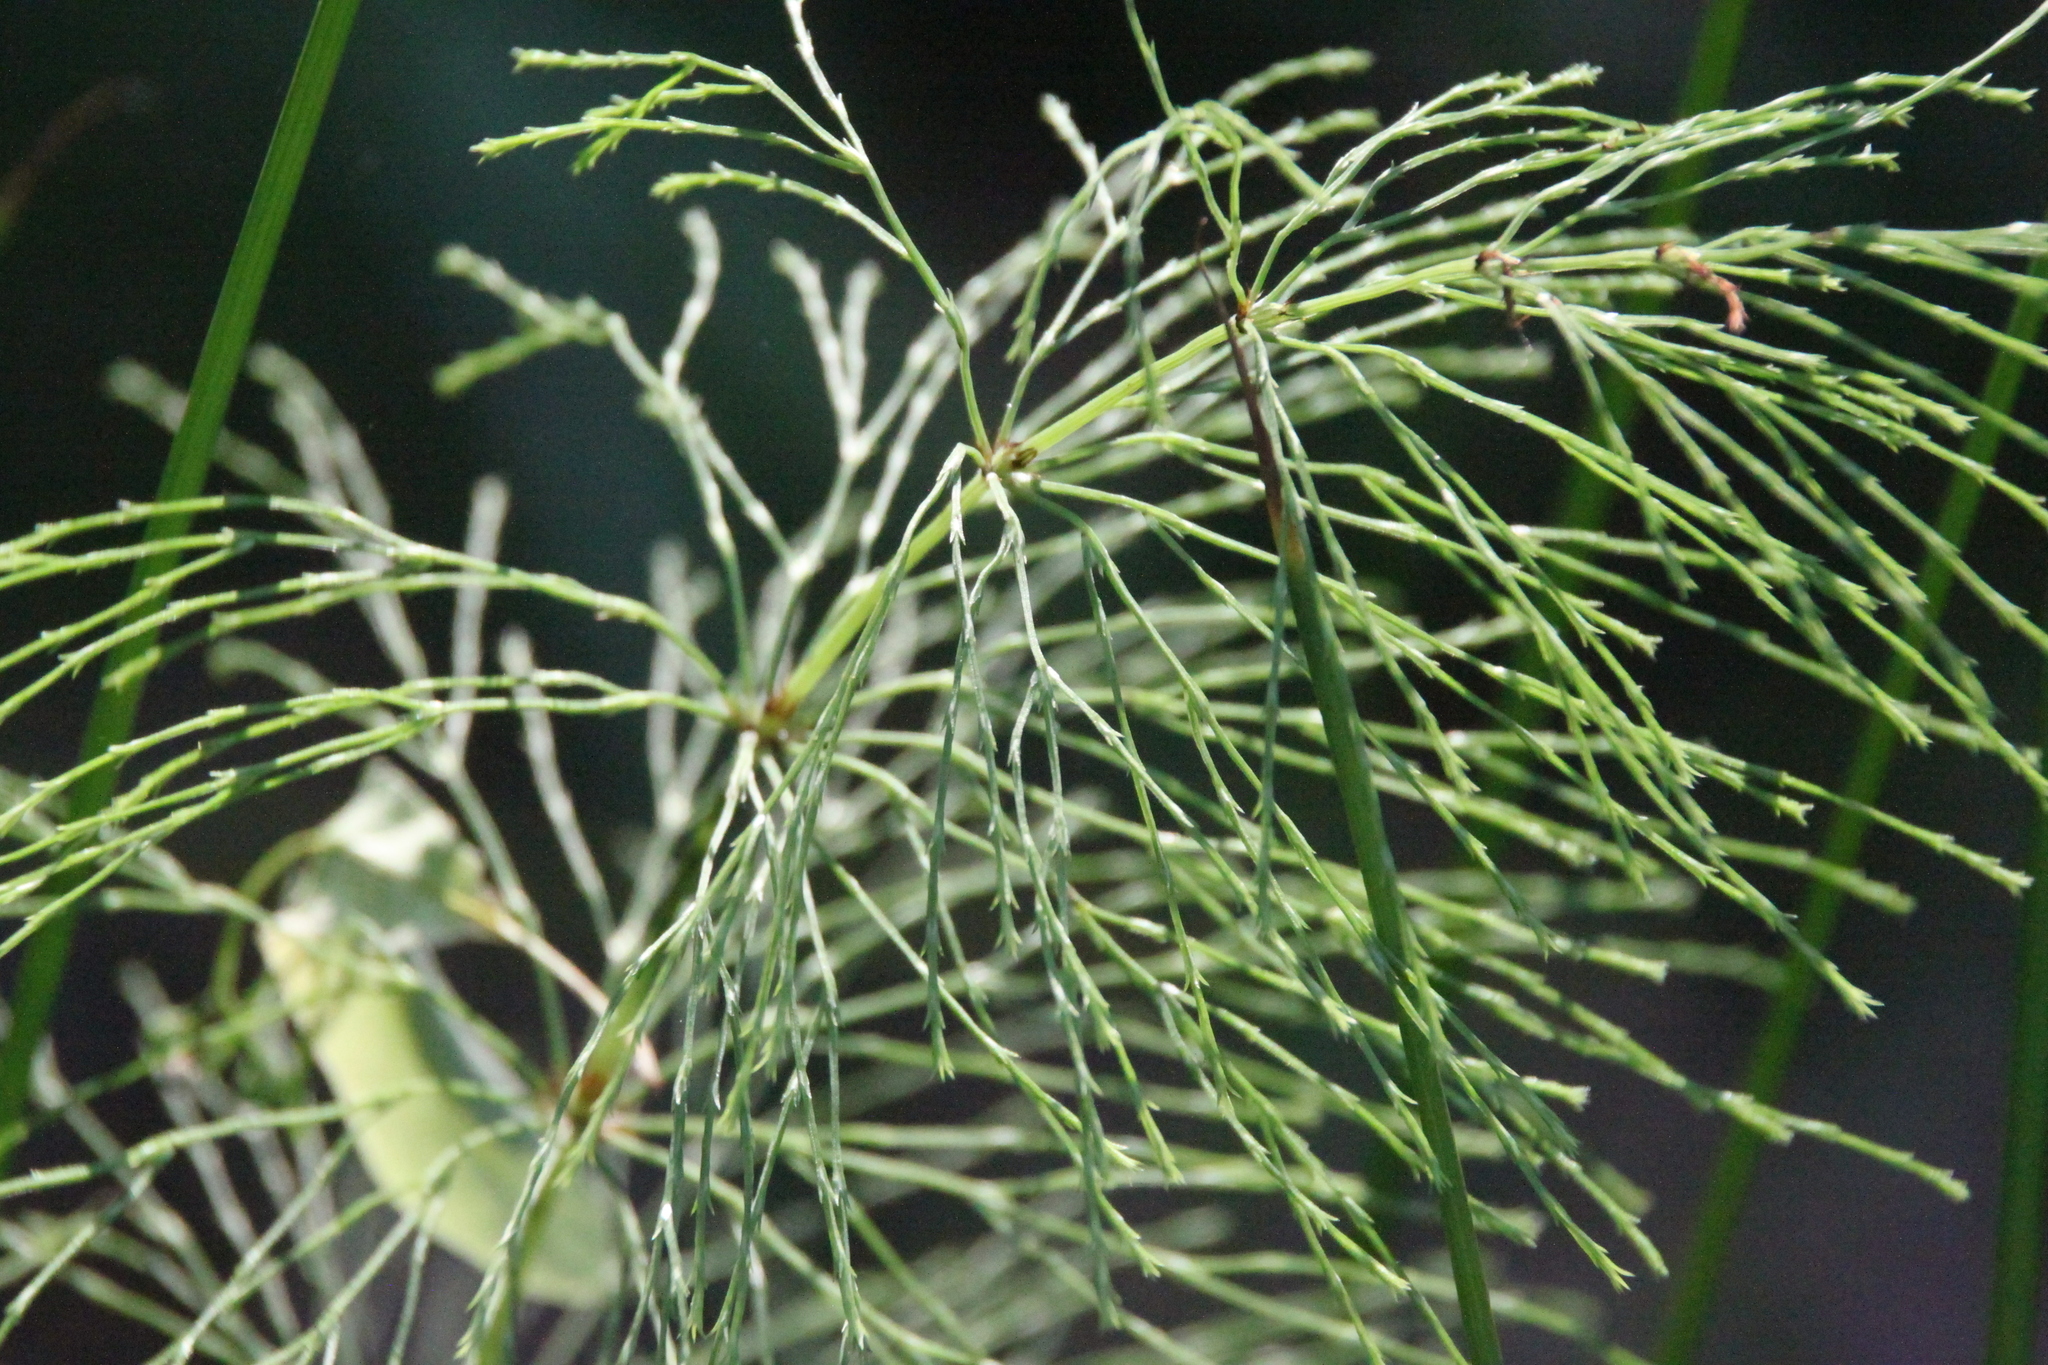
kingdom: Plantae
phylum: Tracheophyta
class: Polypodiopsida
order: Equisetales
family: Equisetaceae
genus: Equisetum
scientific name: Equisetum sylvaticum
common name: Wood horsetail
